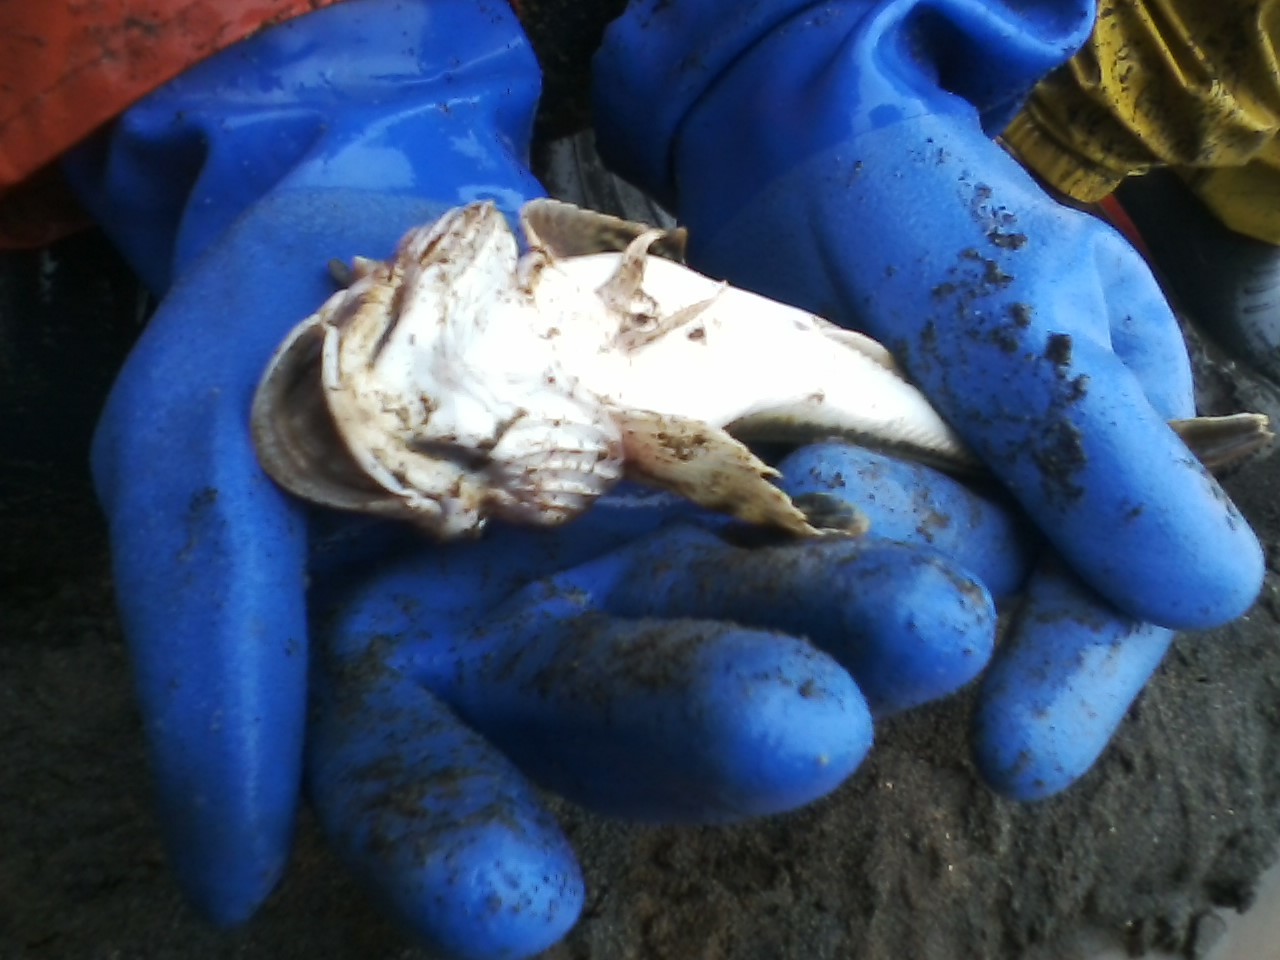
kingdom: Animalia
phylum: Chordata
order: Scorpaeniformes
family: Cottidae
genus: Leptocottus
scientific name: Leptocottus armatus
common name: Pacific staghorn sculpin
